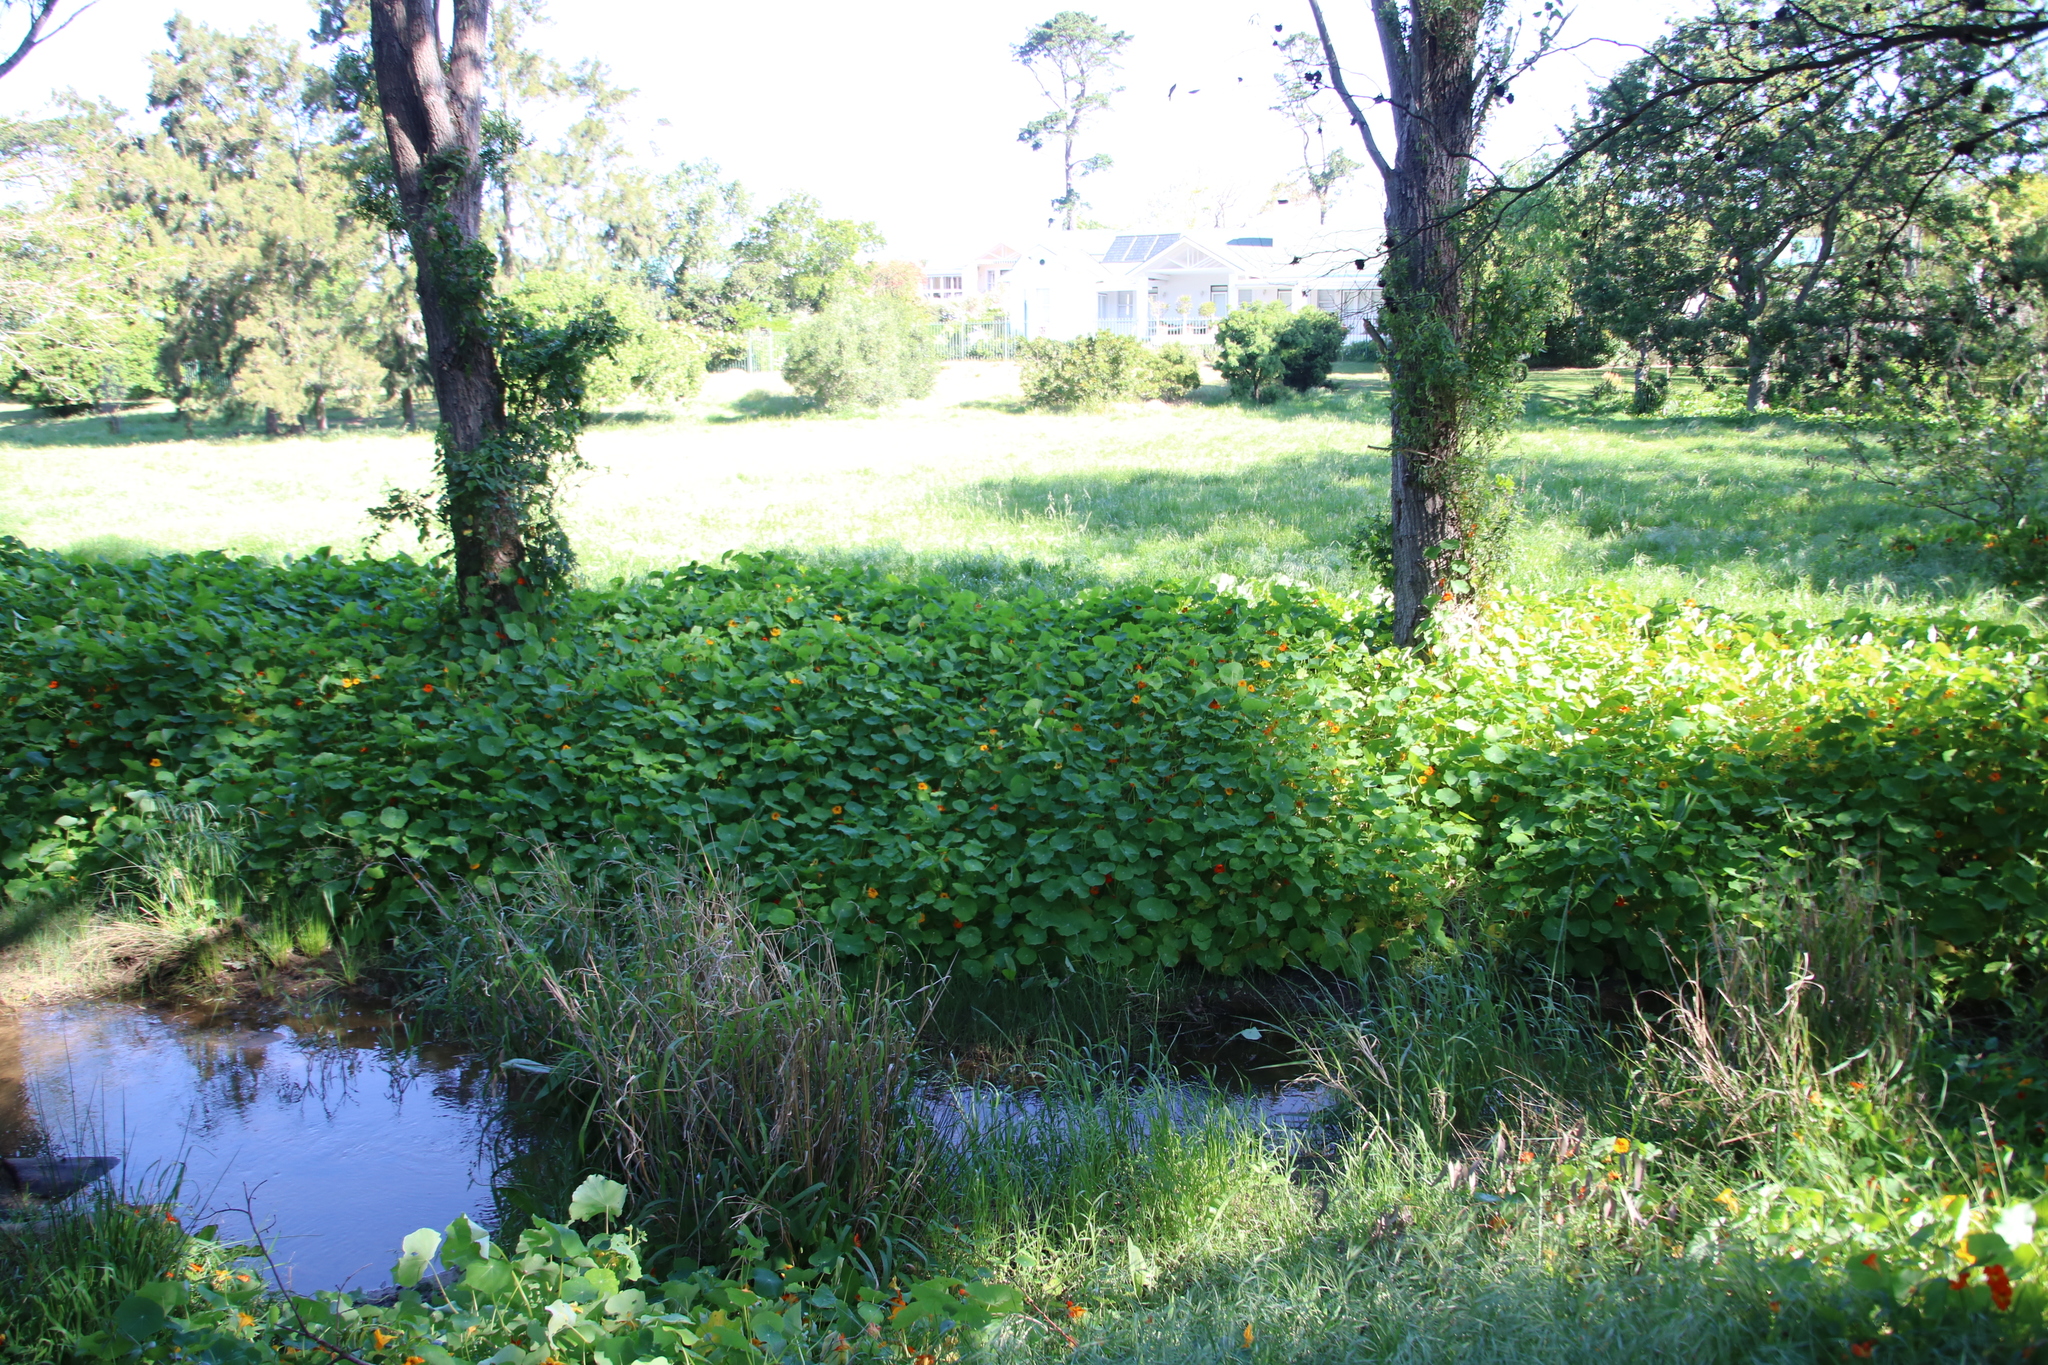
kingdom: Plantae
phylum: Tracheophyta
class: Magnoliopsida
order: Brassicales
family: Tropaeolaceae
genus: Tropaeolum
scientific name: Tropaeolum majus
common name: Nasturtium
